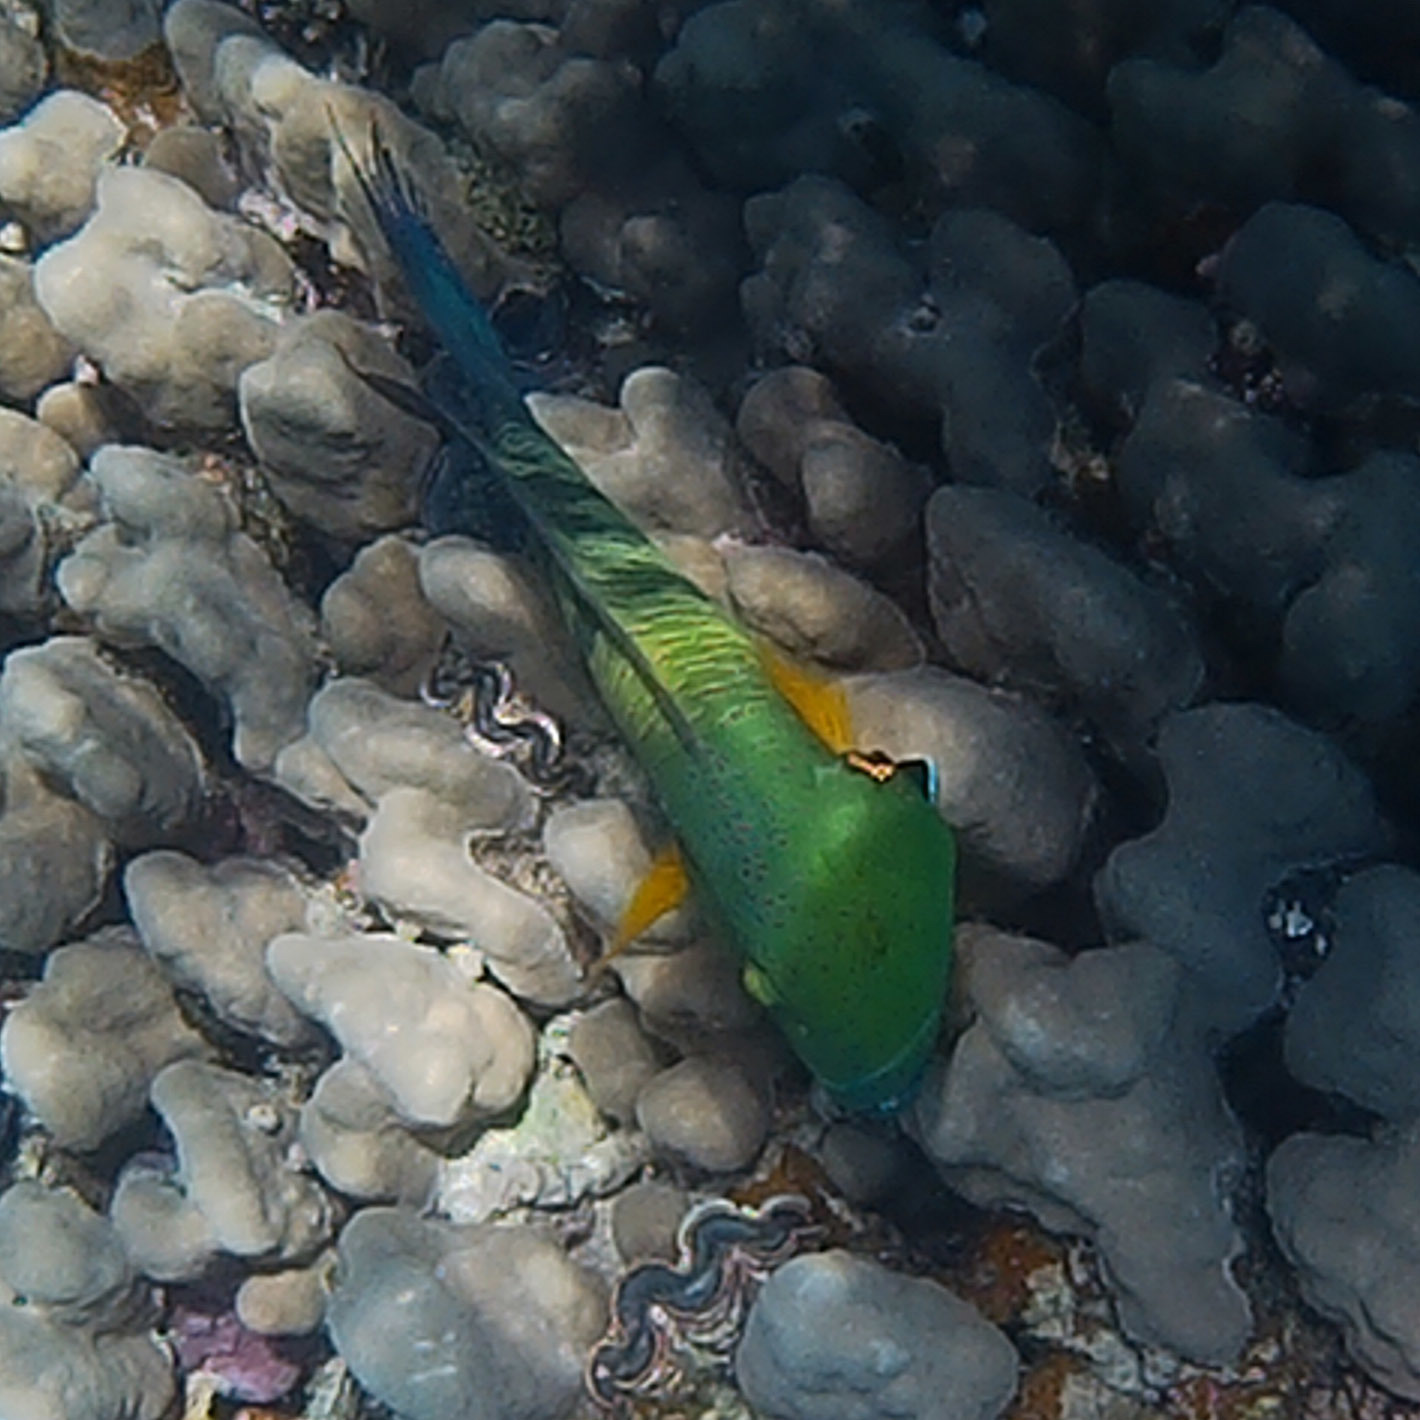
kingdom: Animalia
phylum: Chordata
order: Perciformes
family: Labridae
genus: Cheilinus
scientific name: Cheilinus lunulatus
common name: Broomtail wrasse
